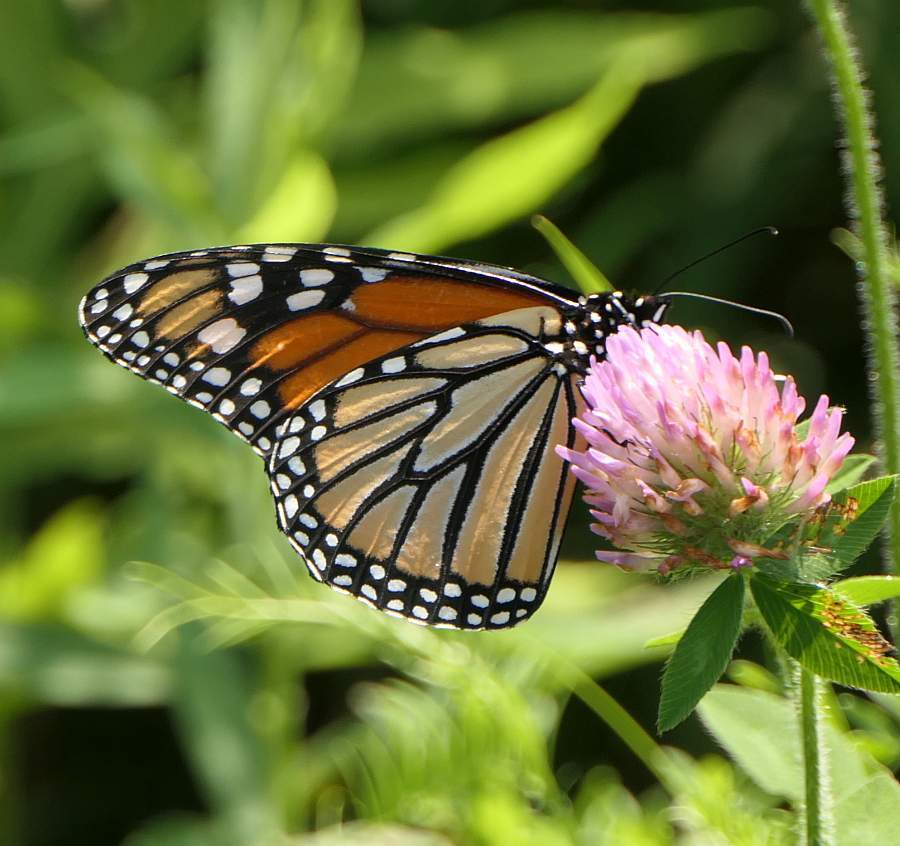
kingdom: Animalia
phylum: Arthropoda
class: Insecta
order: Lepidoptera
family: Nymphalidae
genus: Danaus
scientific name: Danaus plexippus
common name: Monarch
